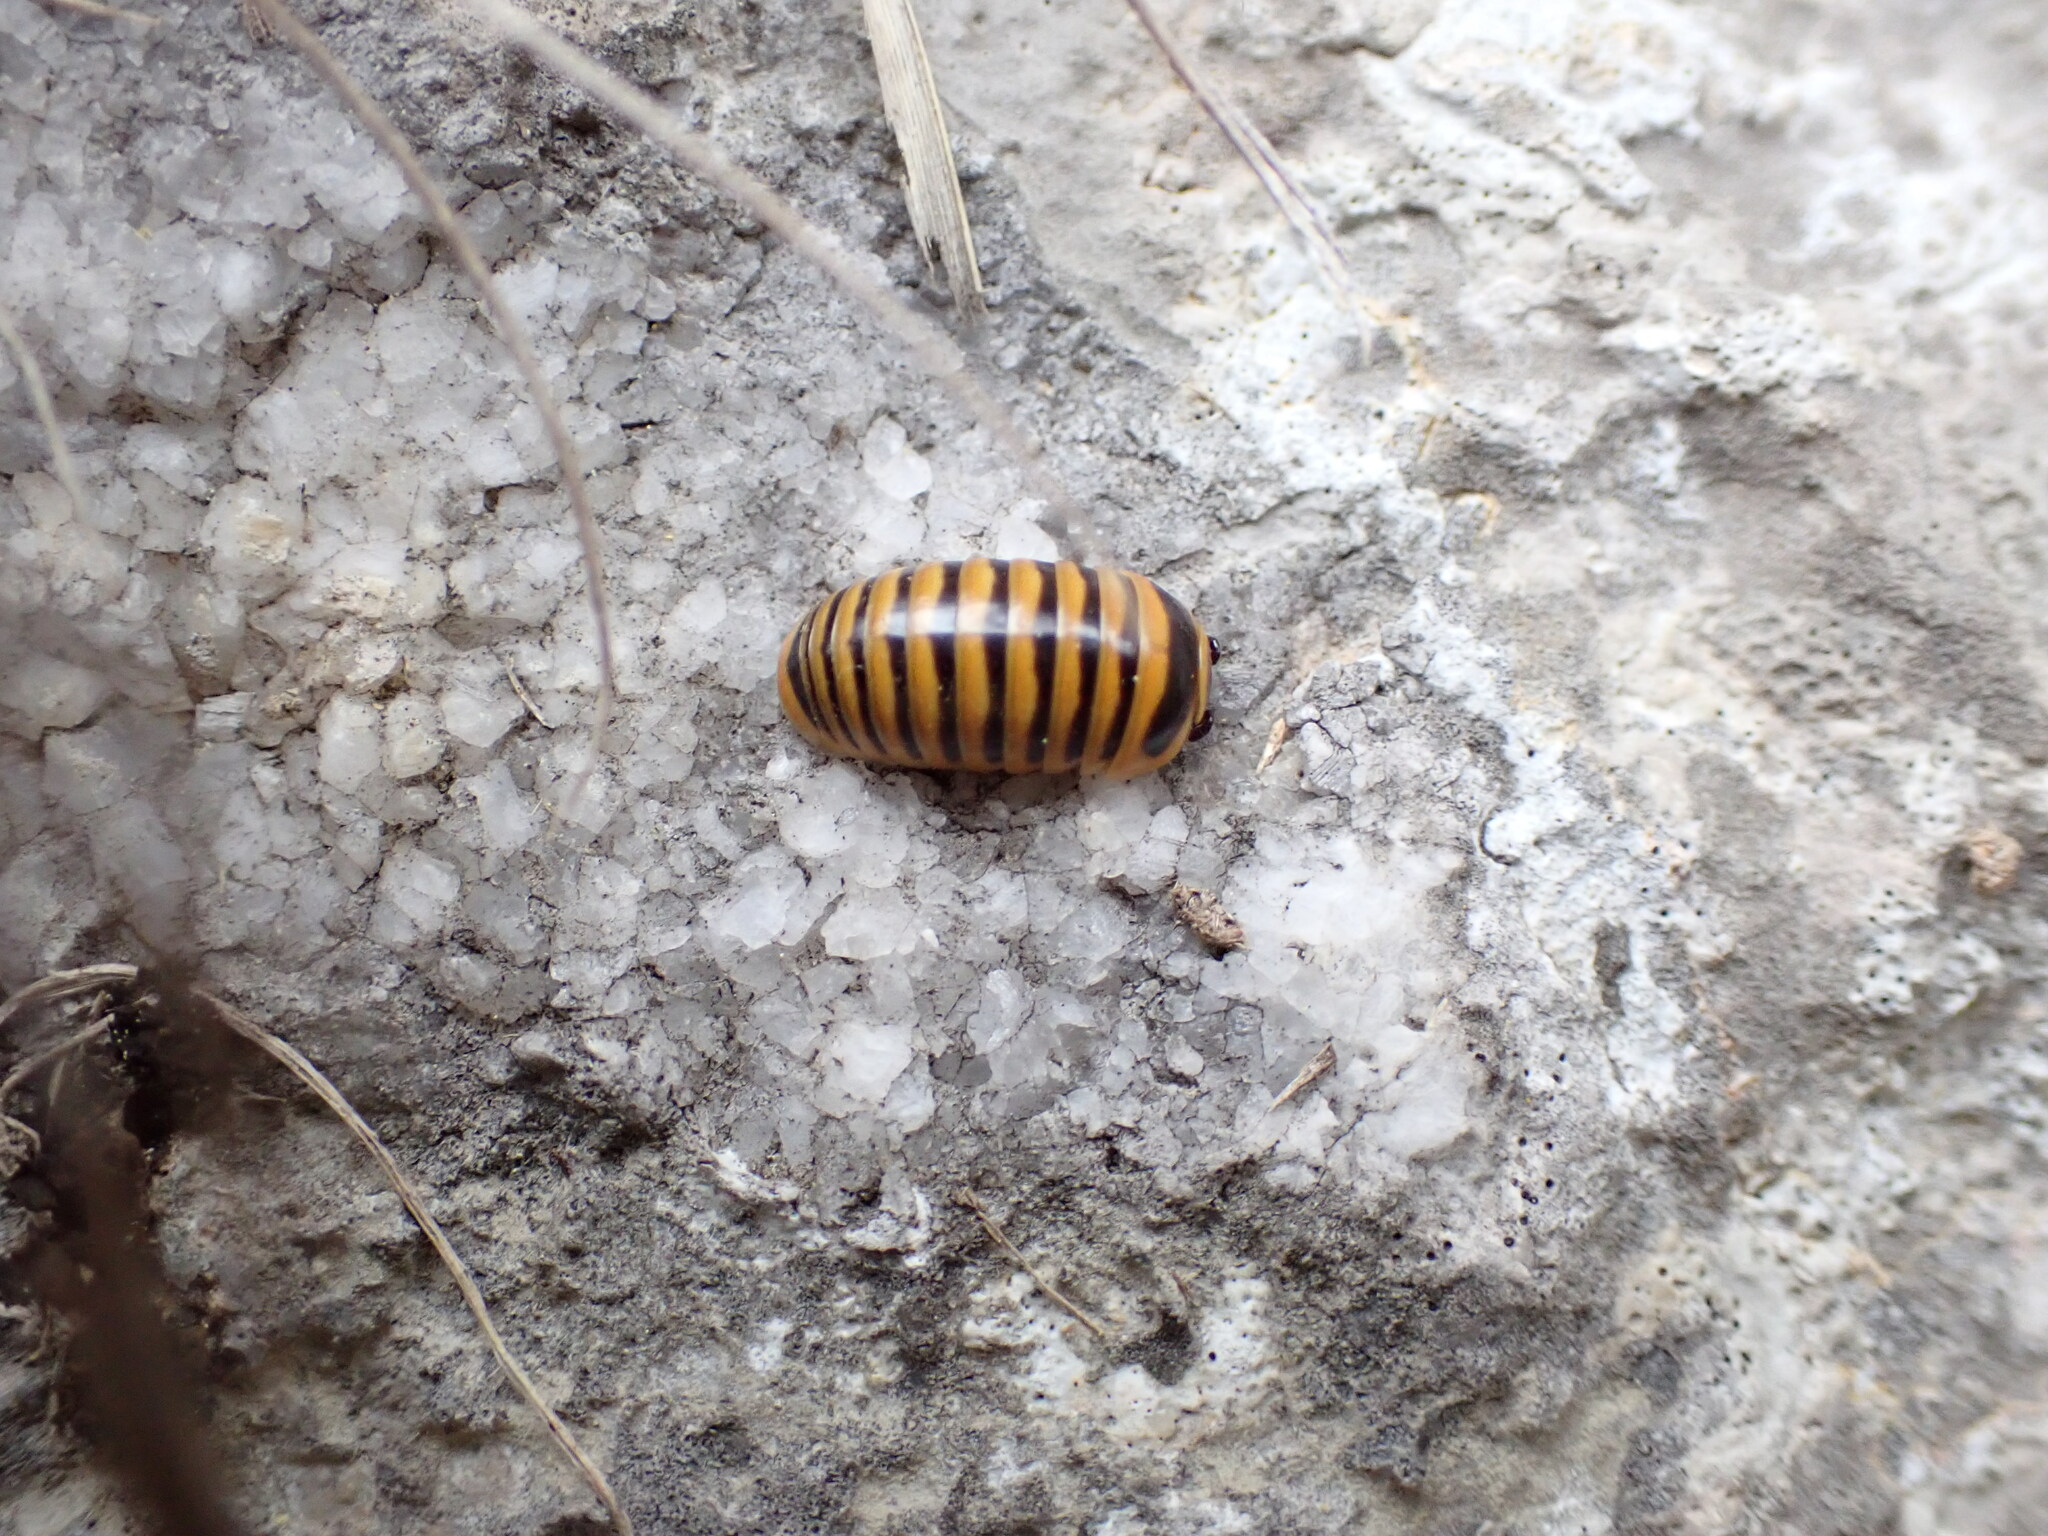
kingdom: Animalia
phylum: Arthropoda
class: Diplopoda
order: Glomerida
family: Glomeridae
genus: Glomeris
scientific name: Glomeris annulata
